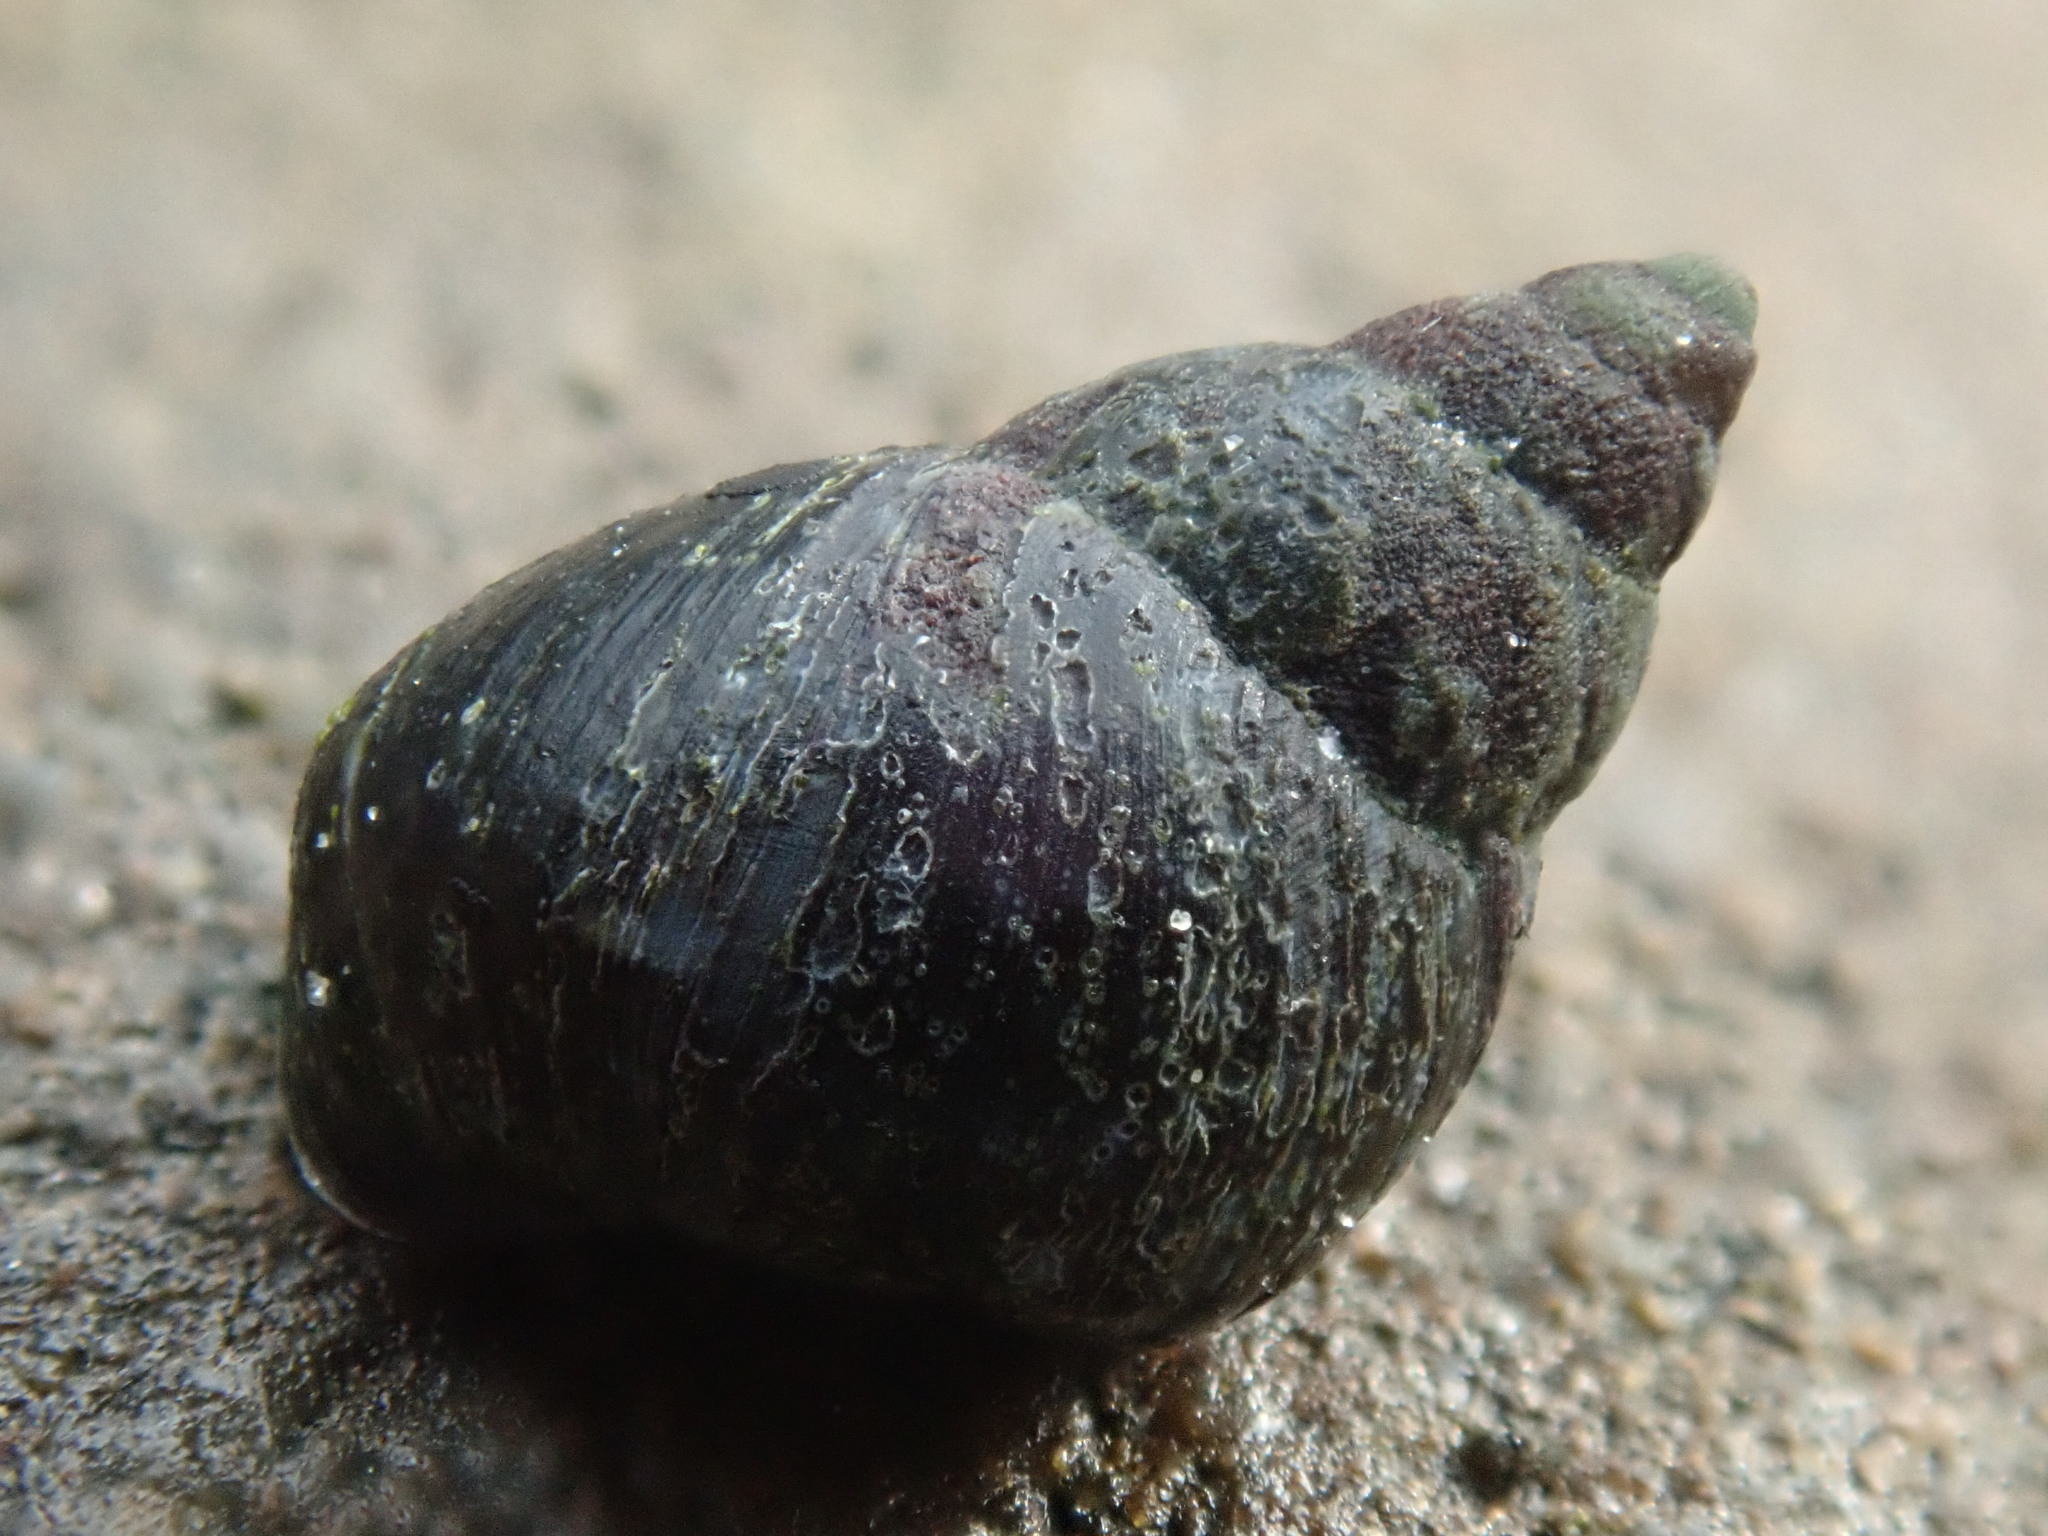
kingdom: Animalia
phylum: Mollusca
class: Gastropoda
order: Littorinimorpha
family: Littorinidae
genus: Littorina
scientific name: Littorina scutulata
